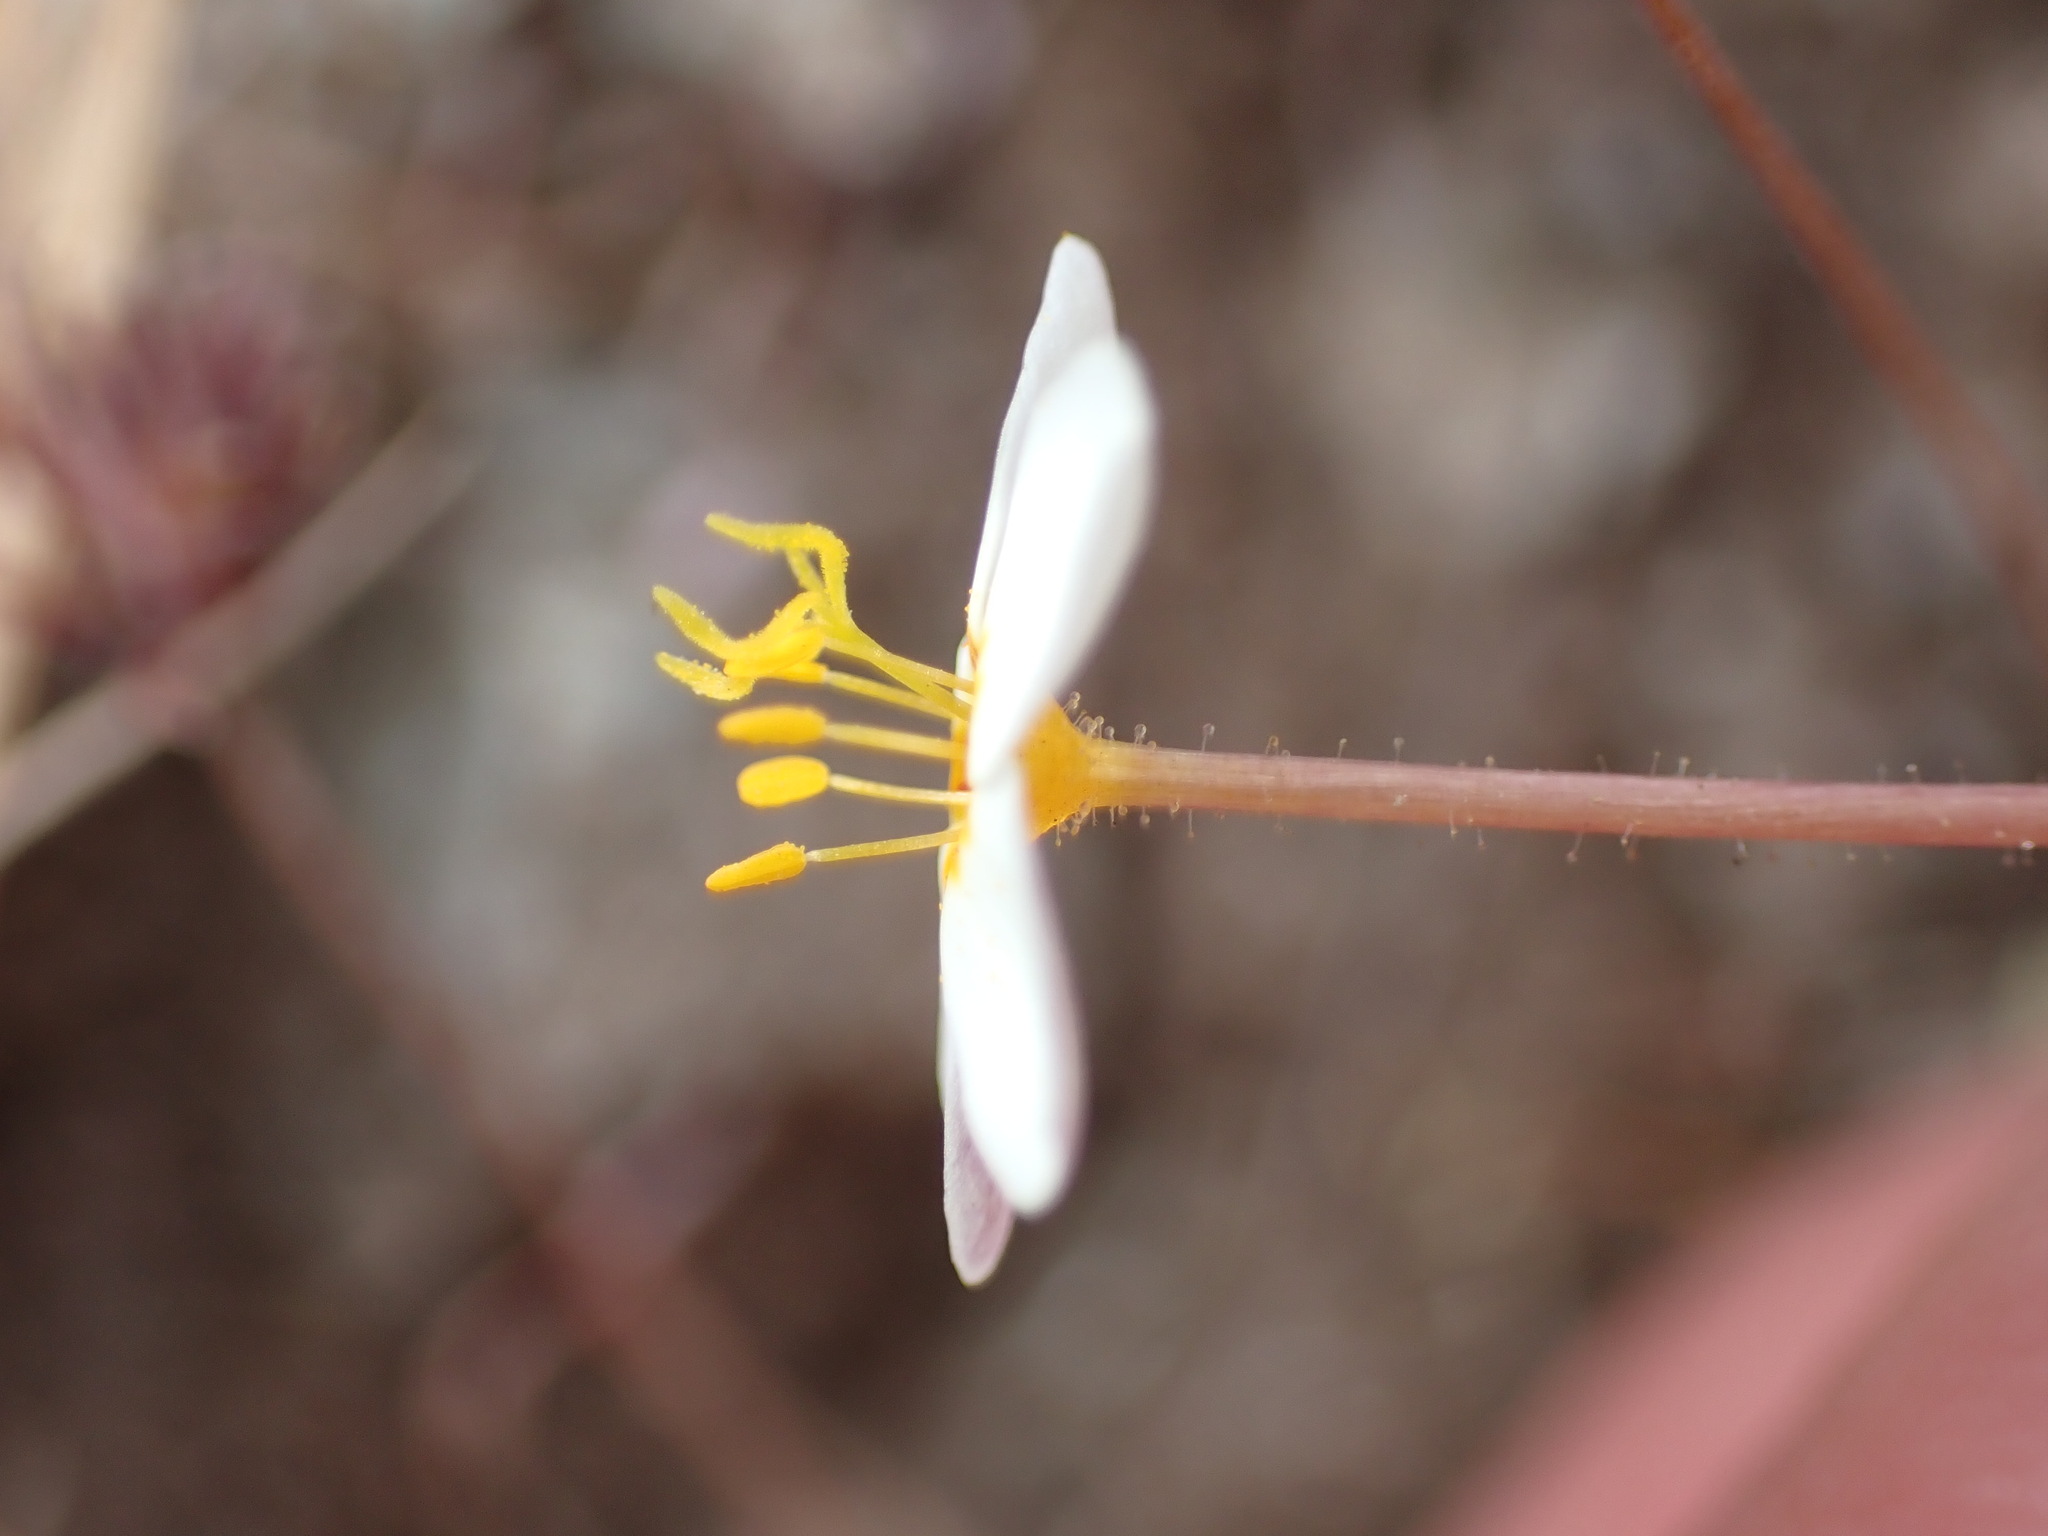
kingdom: Plantae
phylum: Tracheophyta
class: Magnoliopsida
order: Ericales
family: Polemoniaceae
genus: Leptosiphon
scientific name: Leptosiphon parviflorus
